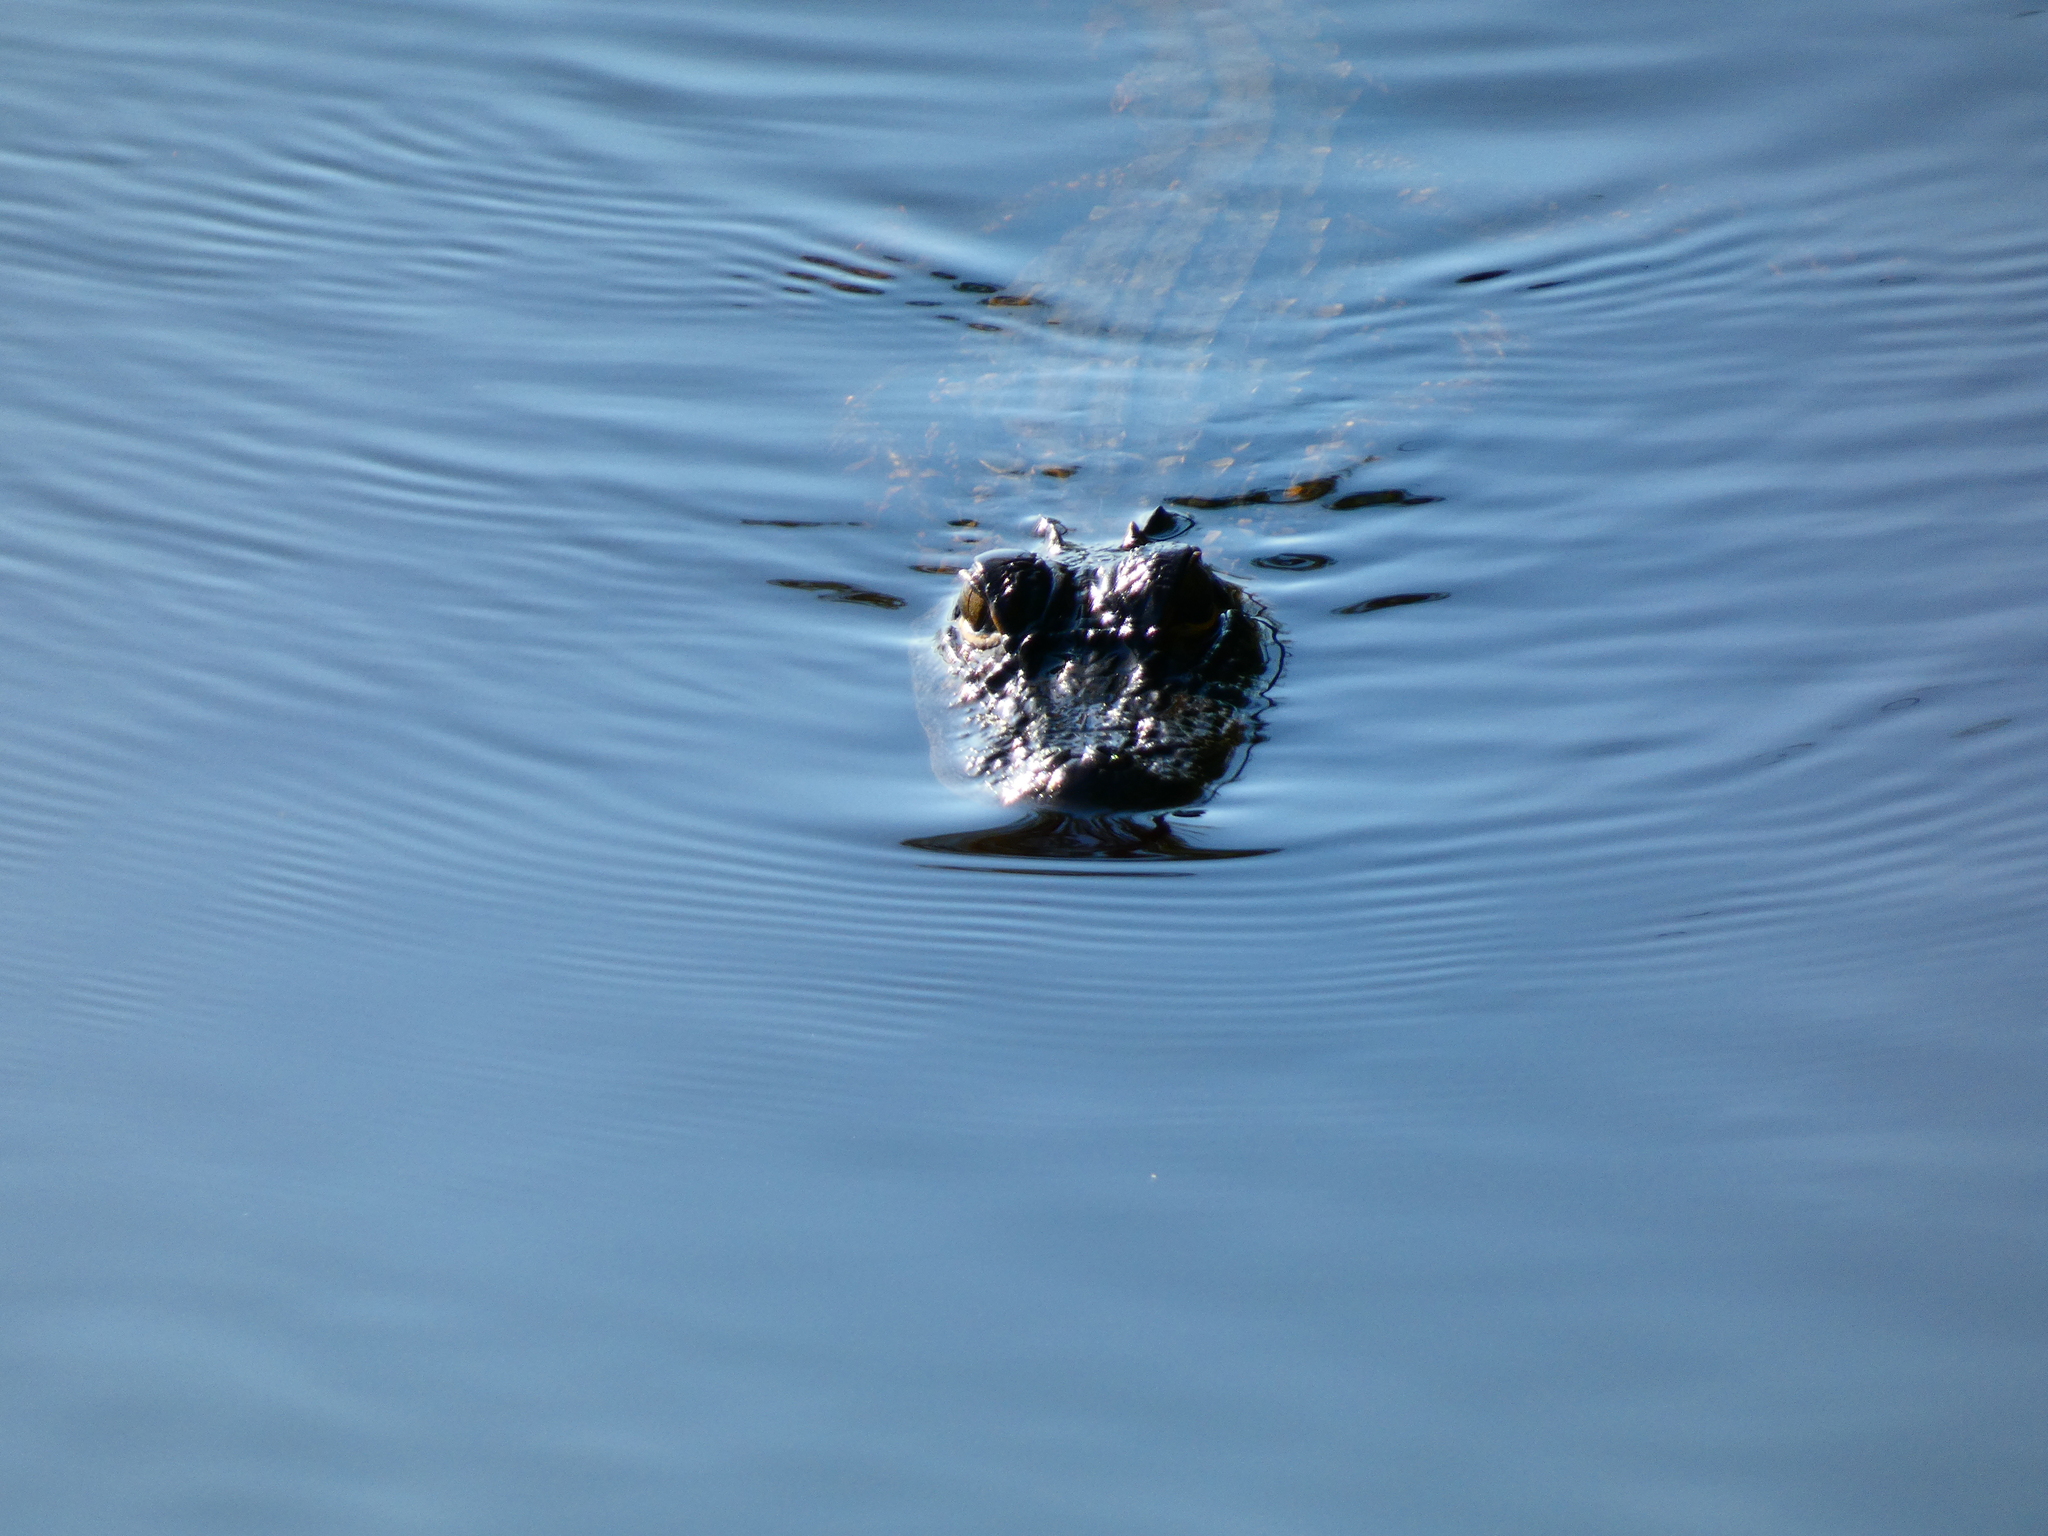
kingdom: Animalia
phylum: Chordata
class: Crocodylia
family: Alligatoridae
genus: Alligator
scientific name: Alligator mississippiensis
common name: American alligator
